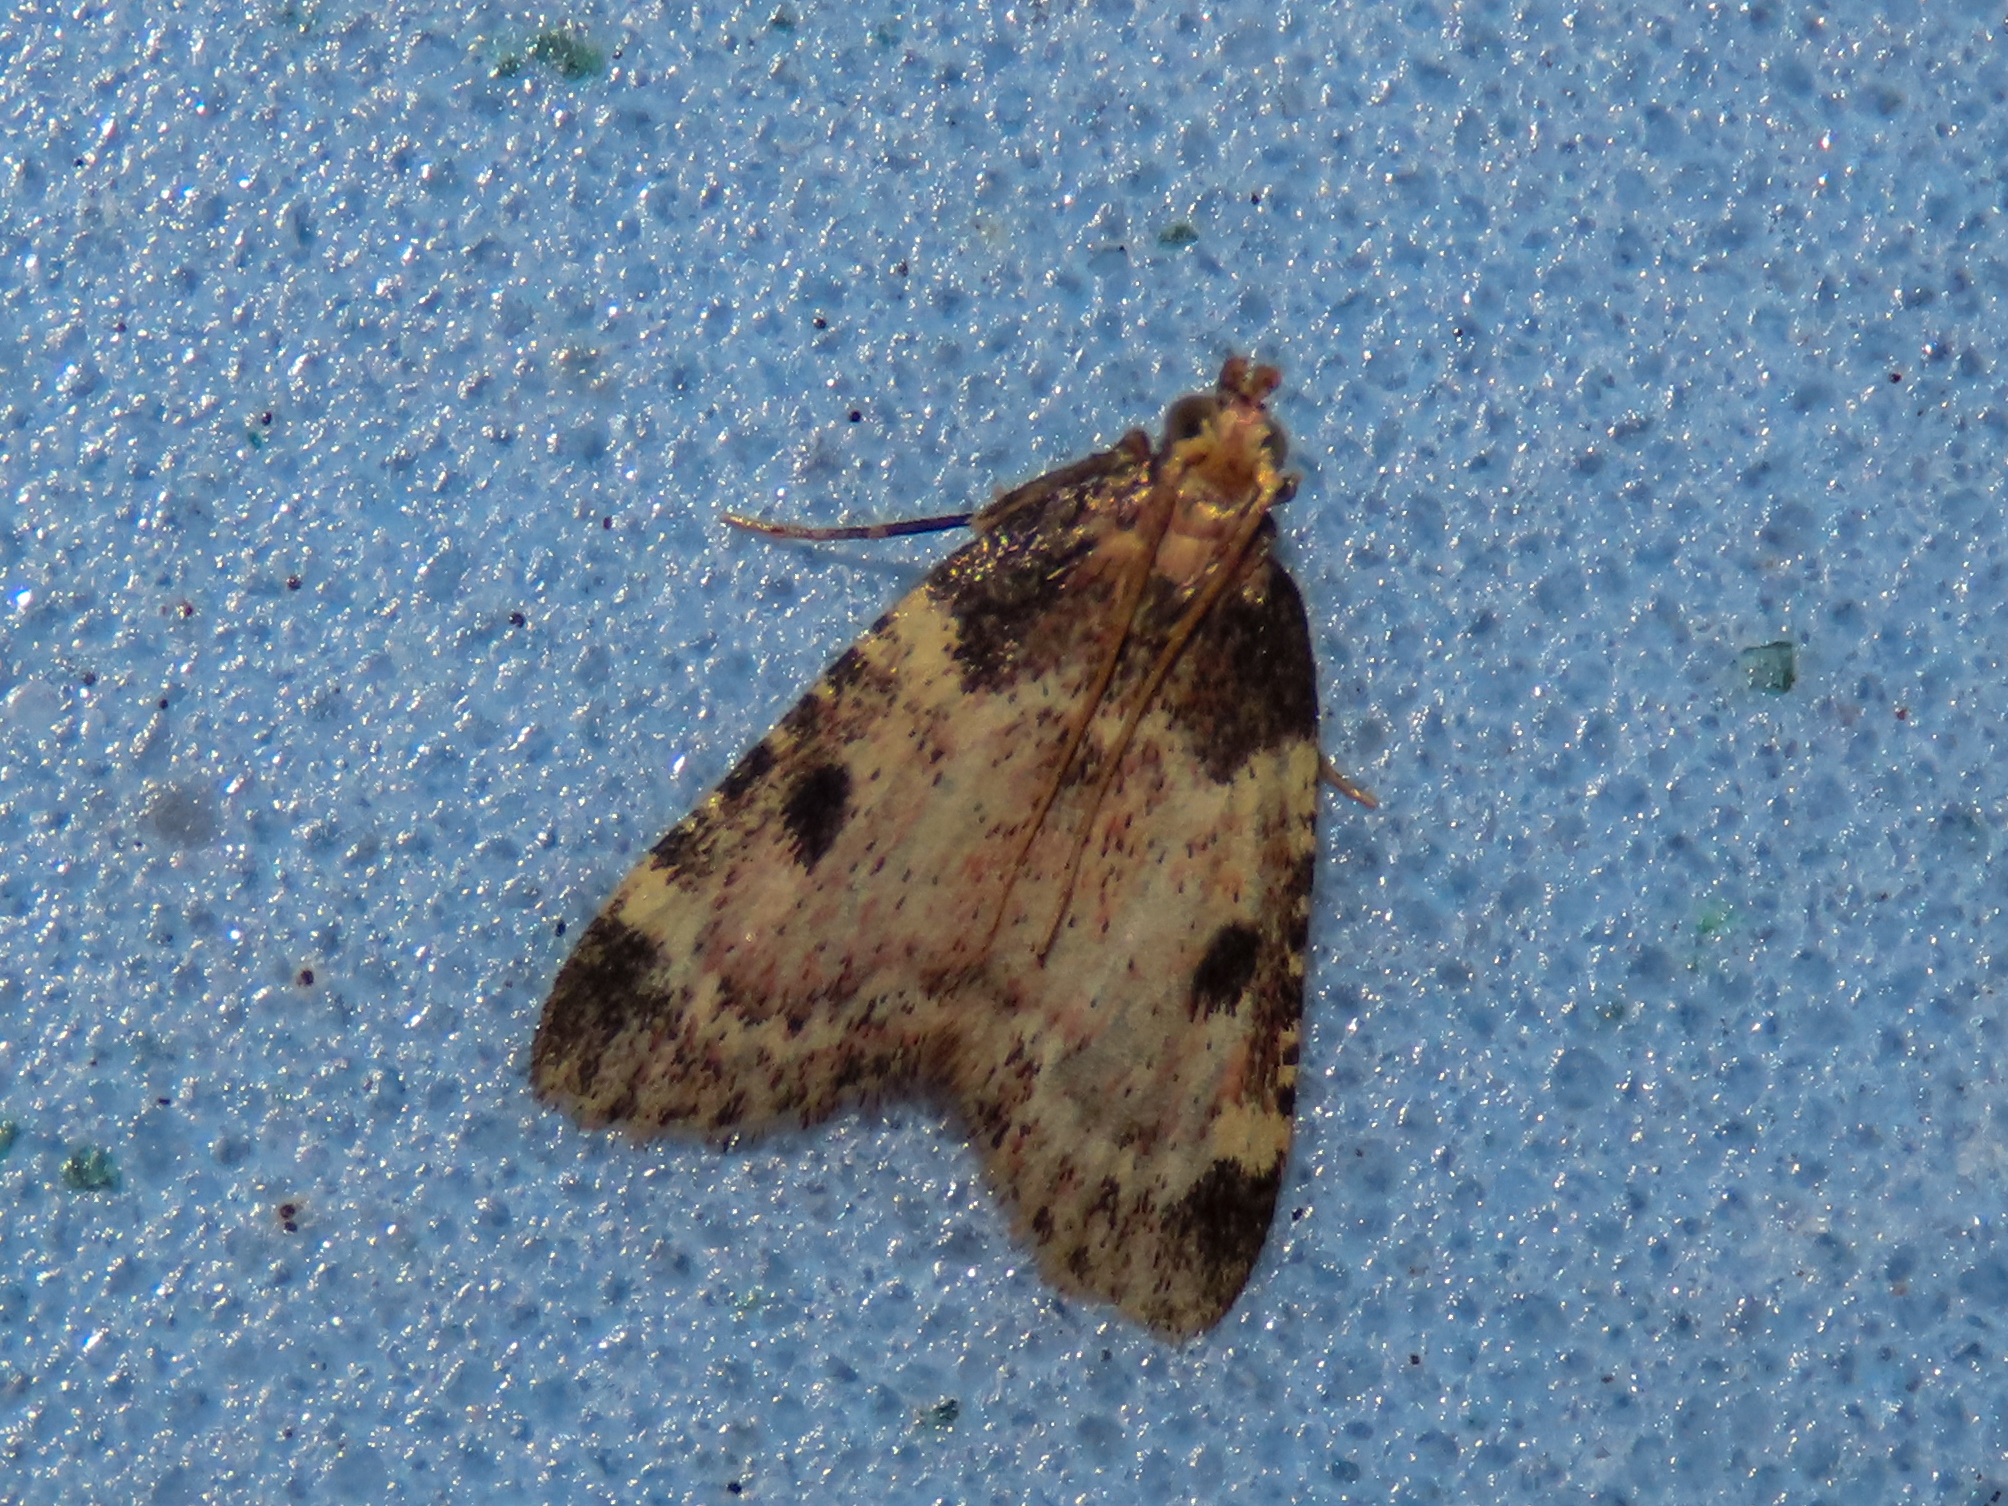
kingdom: Animalia
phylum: Arthropoda
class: Insecta
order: Lepidoptera
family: Pyralidae
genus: Aglossa
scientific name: Aglossa costiferalis
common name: Calico pyralid moth
